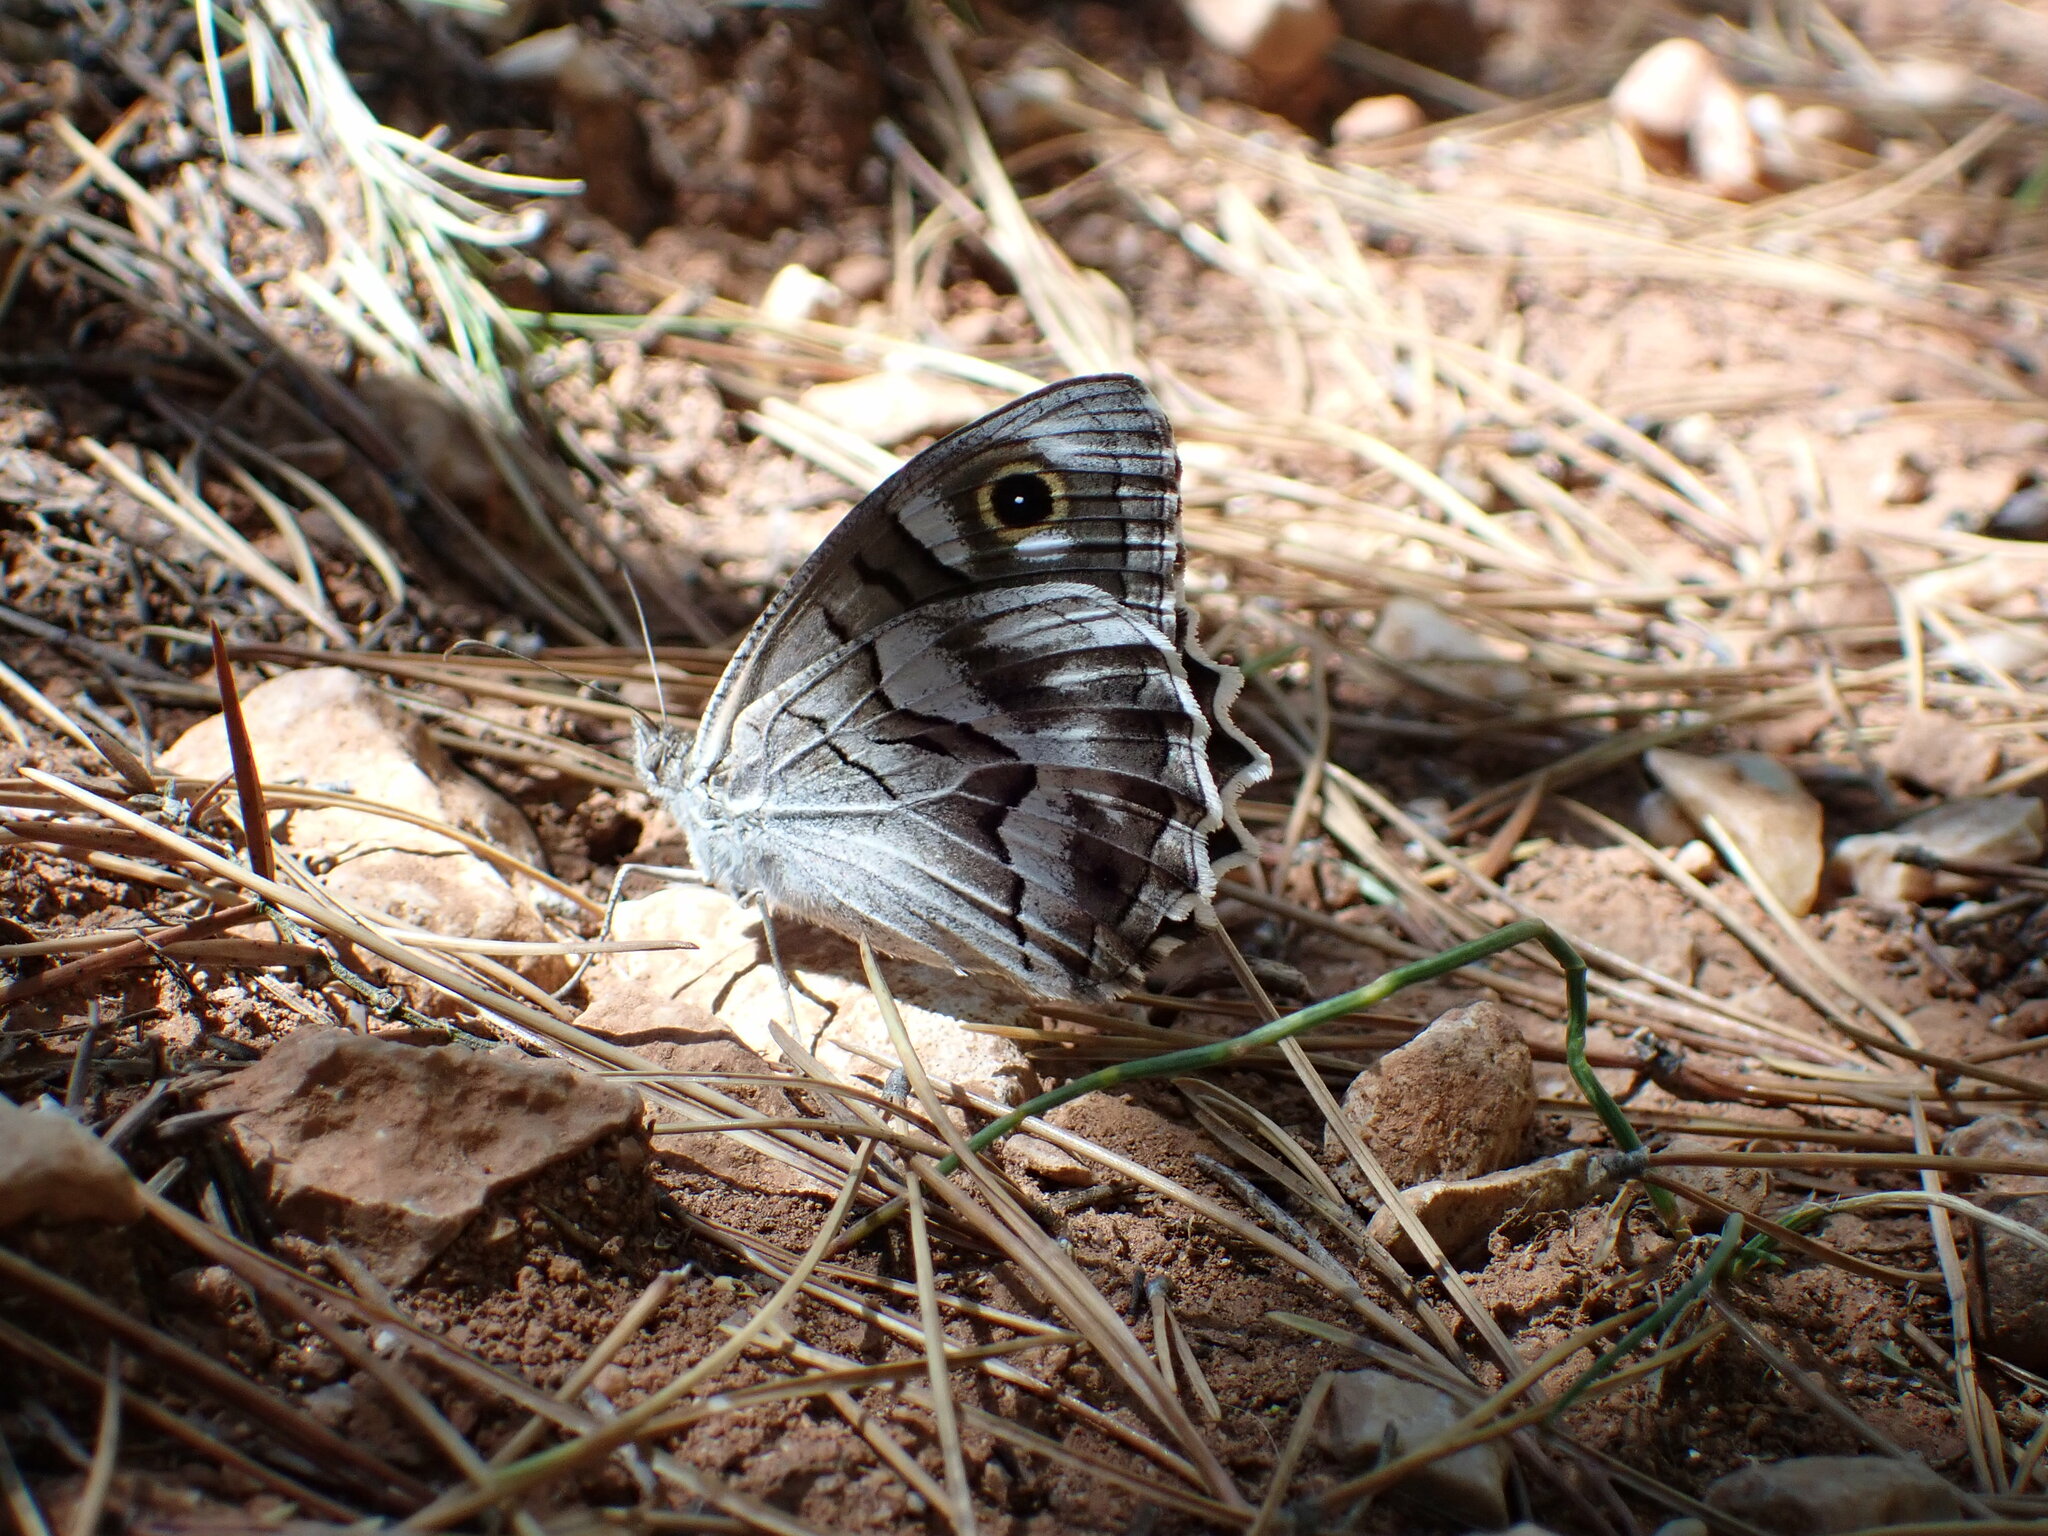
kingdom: Animalia
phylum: Arthropoda
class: Insecta
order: Lepidoptera
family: Nymphalidae
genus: Hipparchia
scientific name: Hipparchia fidia
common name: Striped grayling
